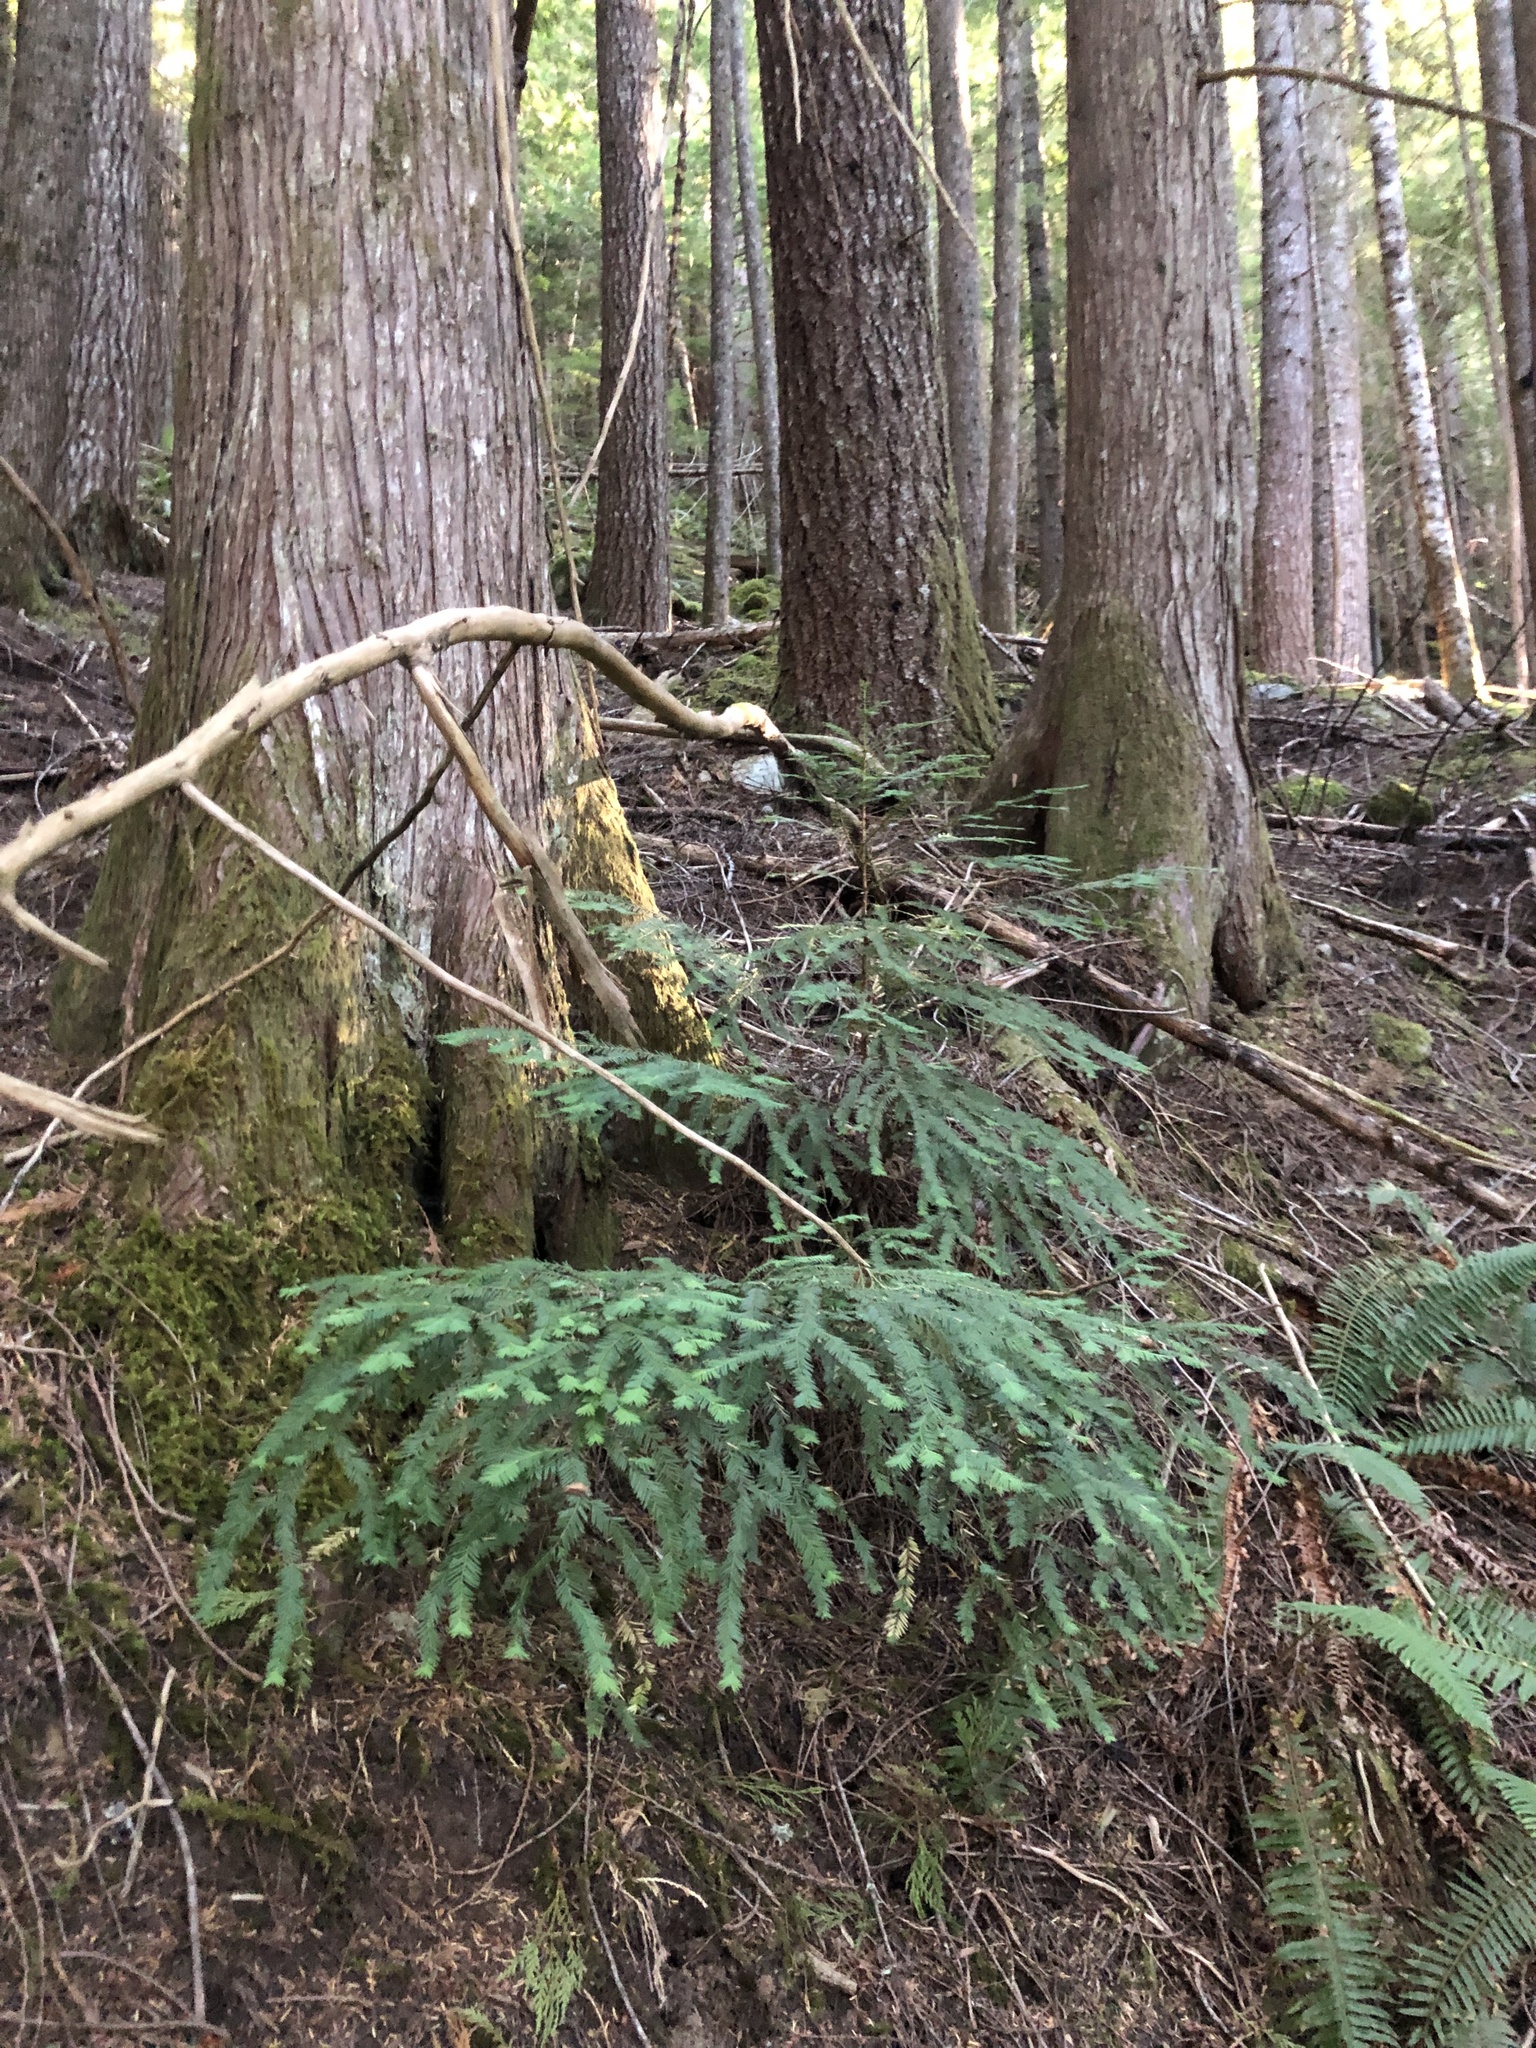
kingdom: Plantae
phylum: Tracheophyta
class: Pinopsida
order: Pinales
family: Taxaceae
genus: Taxus
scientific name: Taxus brevifolia
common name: Pacific yew
